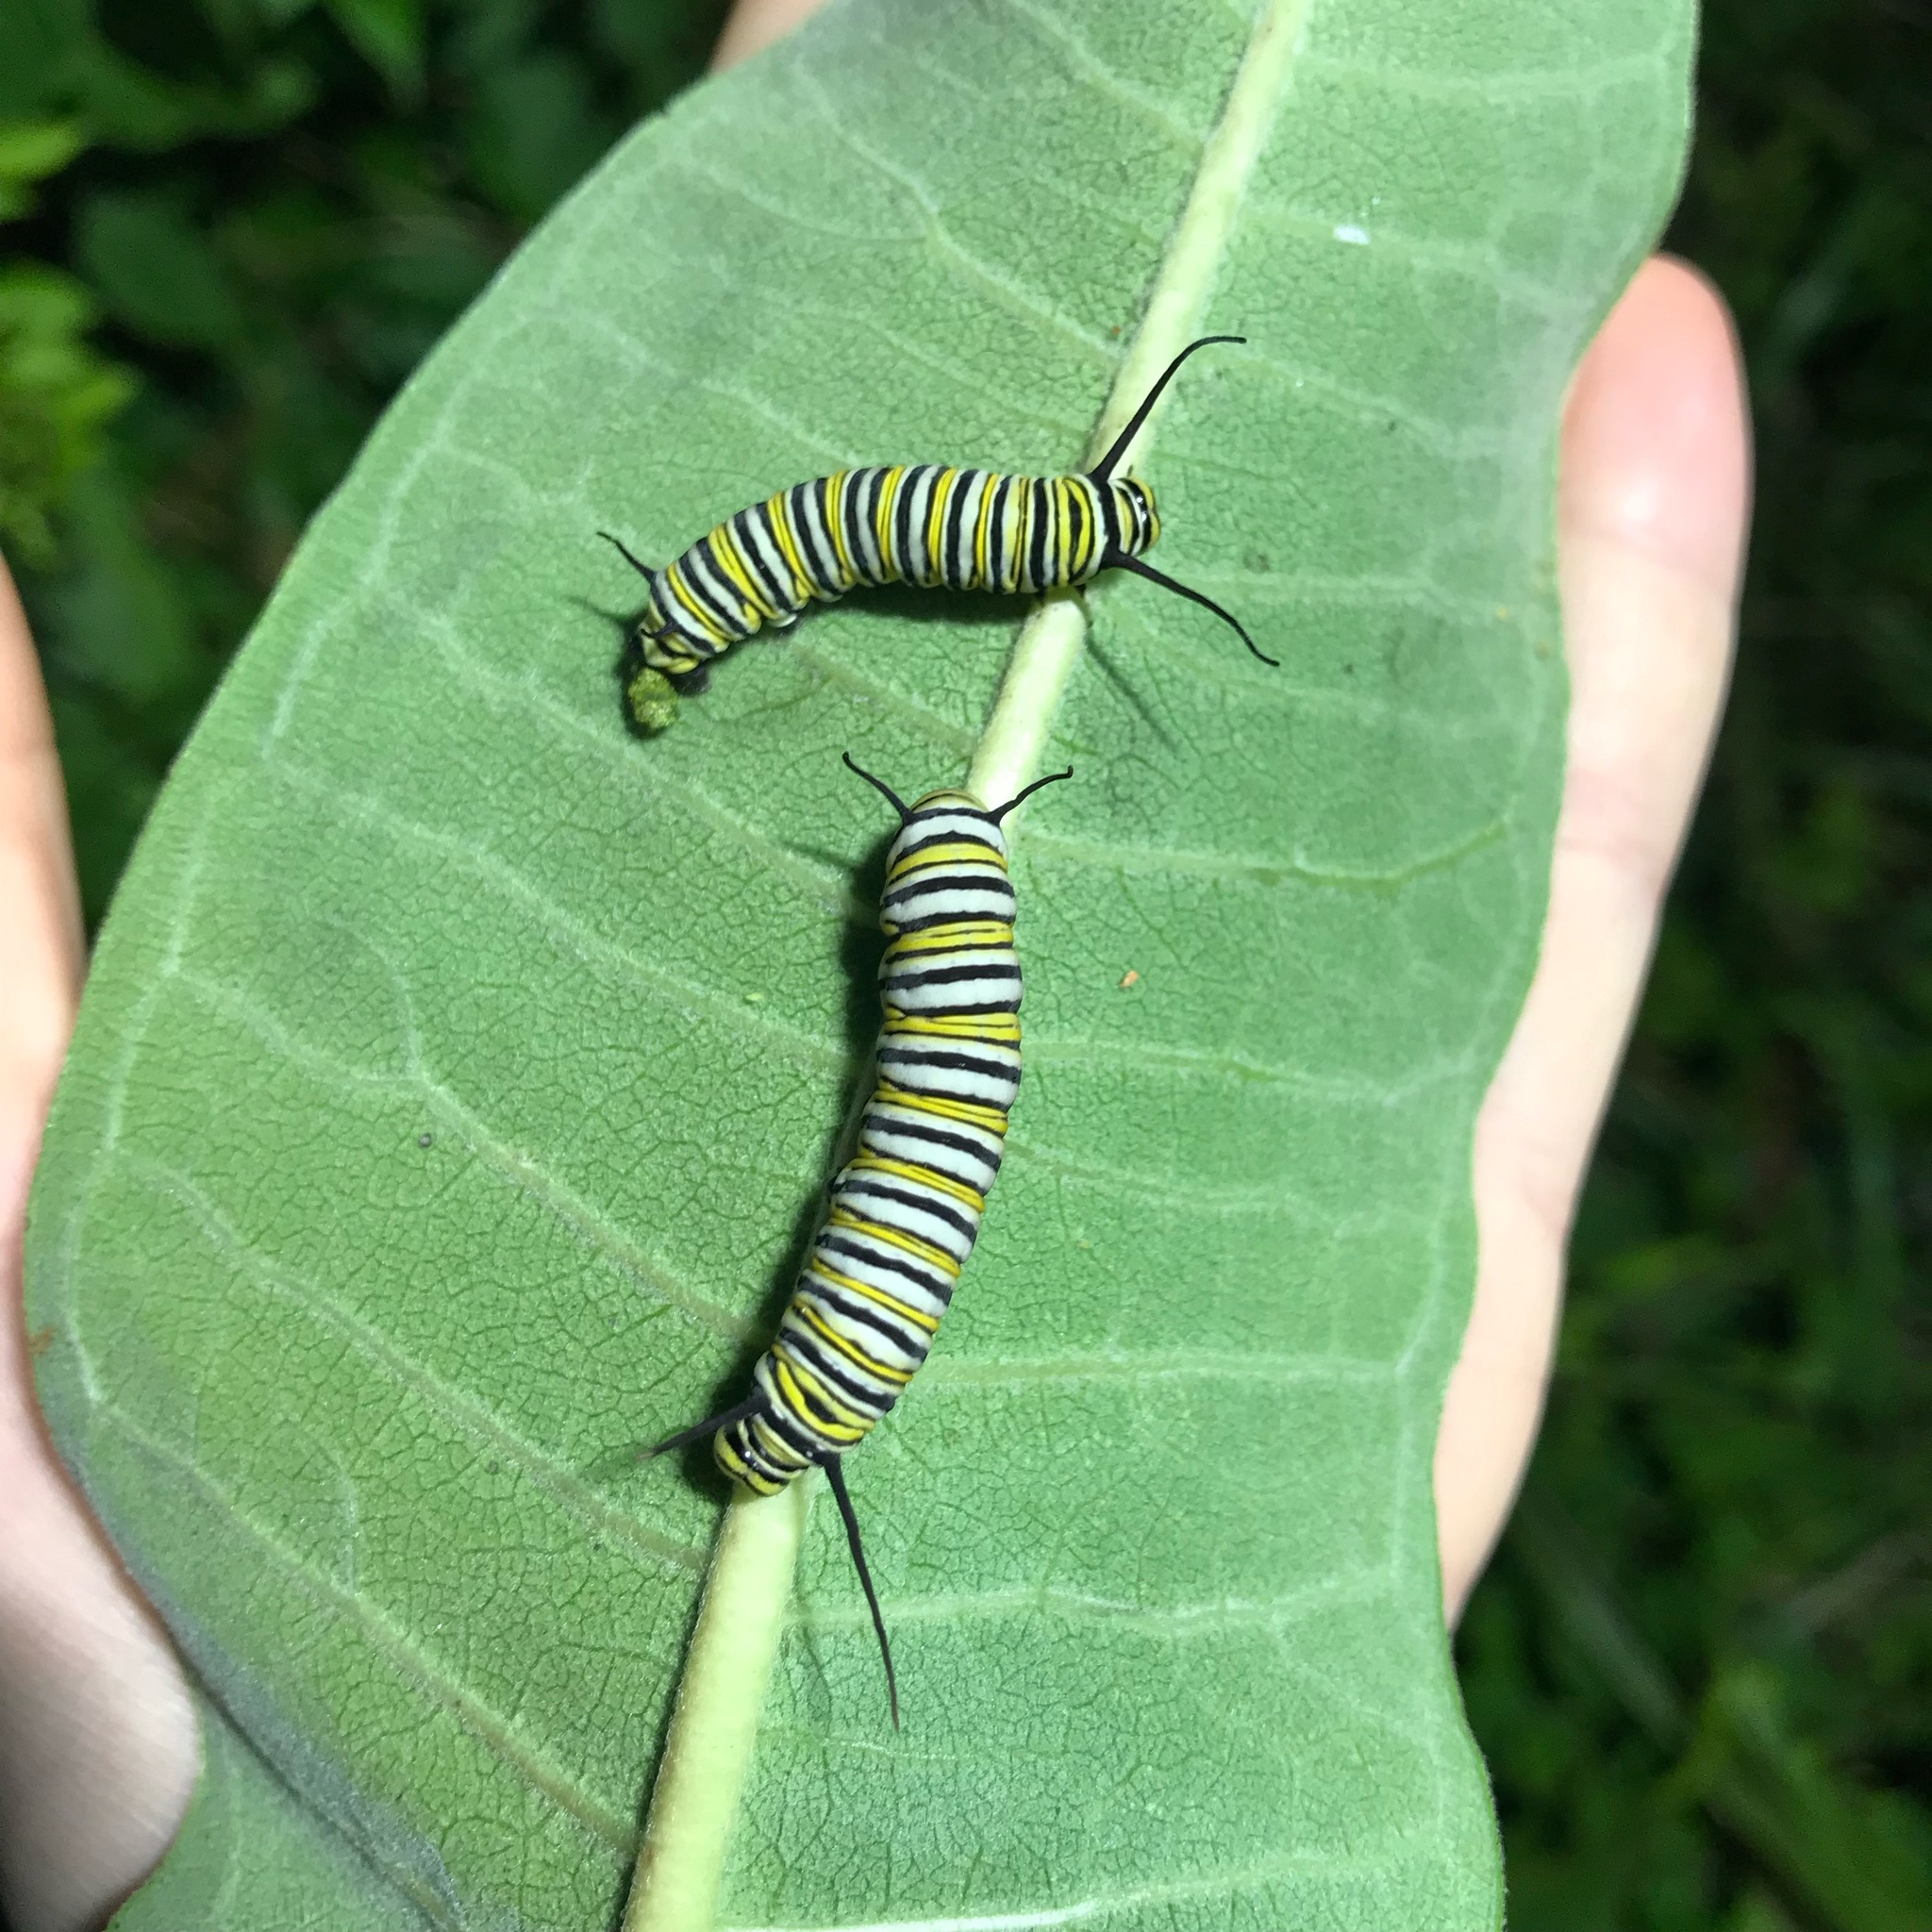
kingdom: Animalia
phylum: Arthropoda
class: Insecta
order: Lepidoptera
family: Nymphalidae
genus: Danaus
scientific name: Danaus plexippus
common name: Monarch
